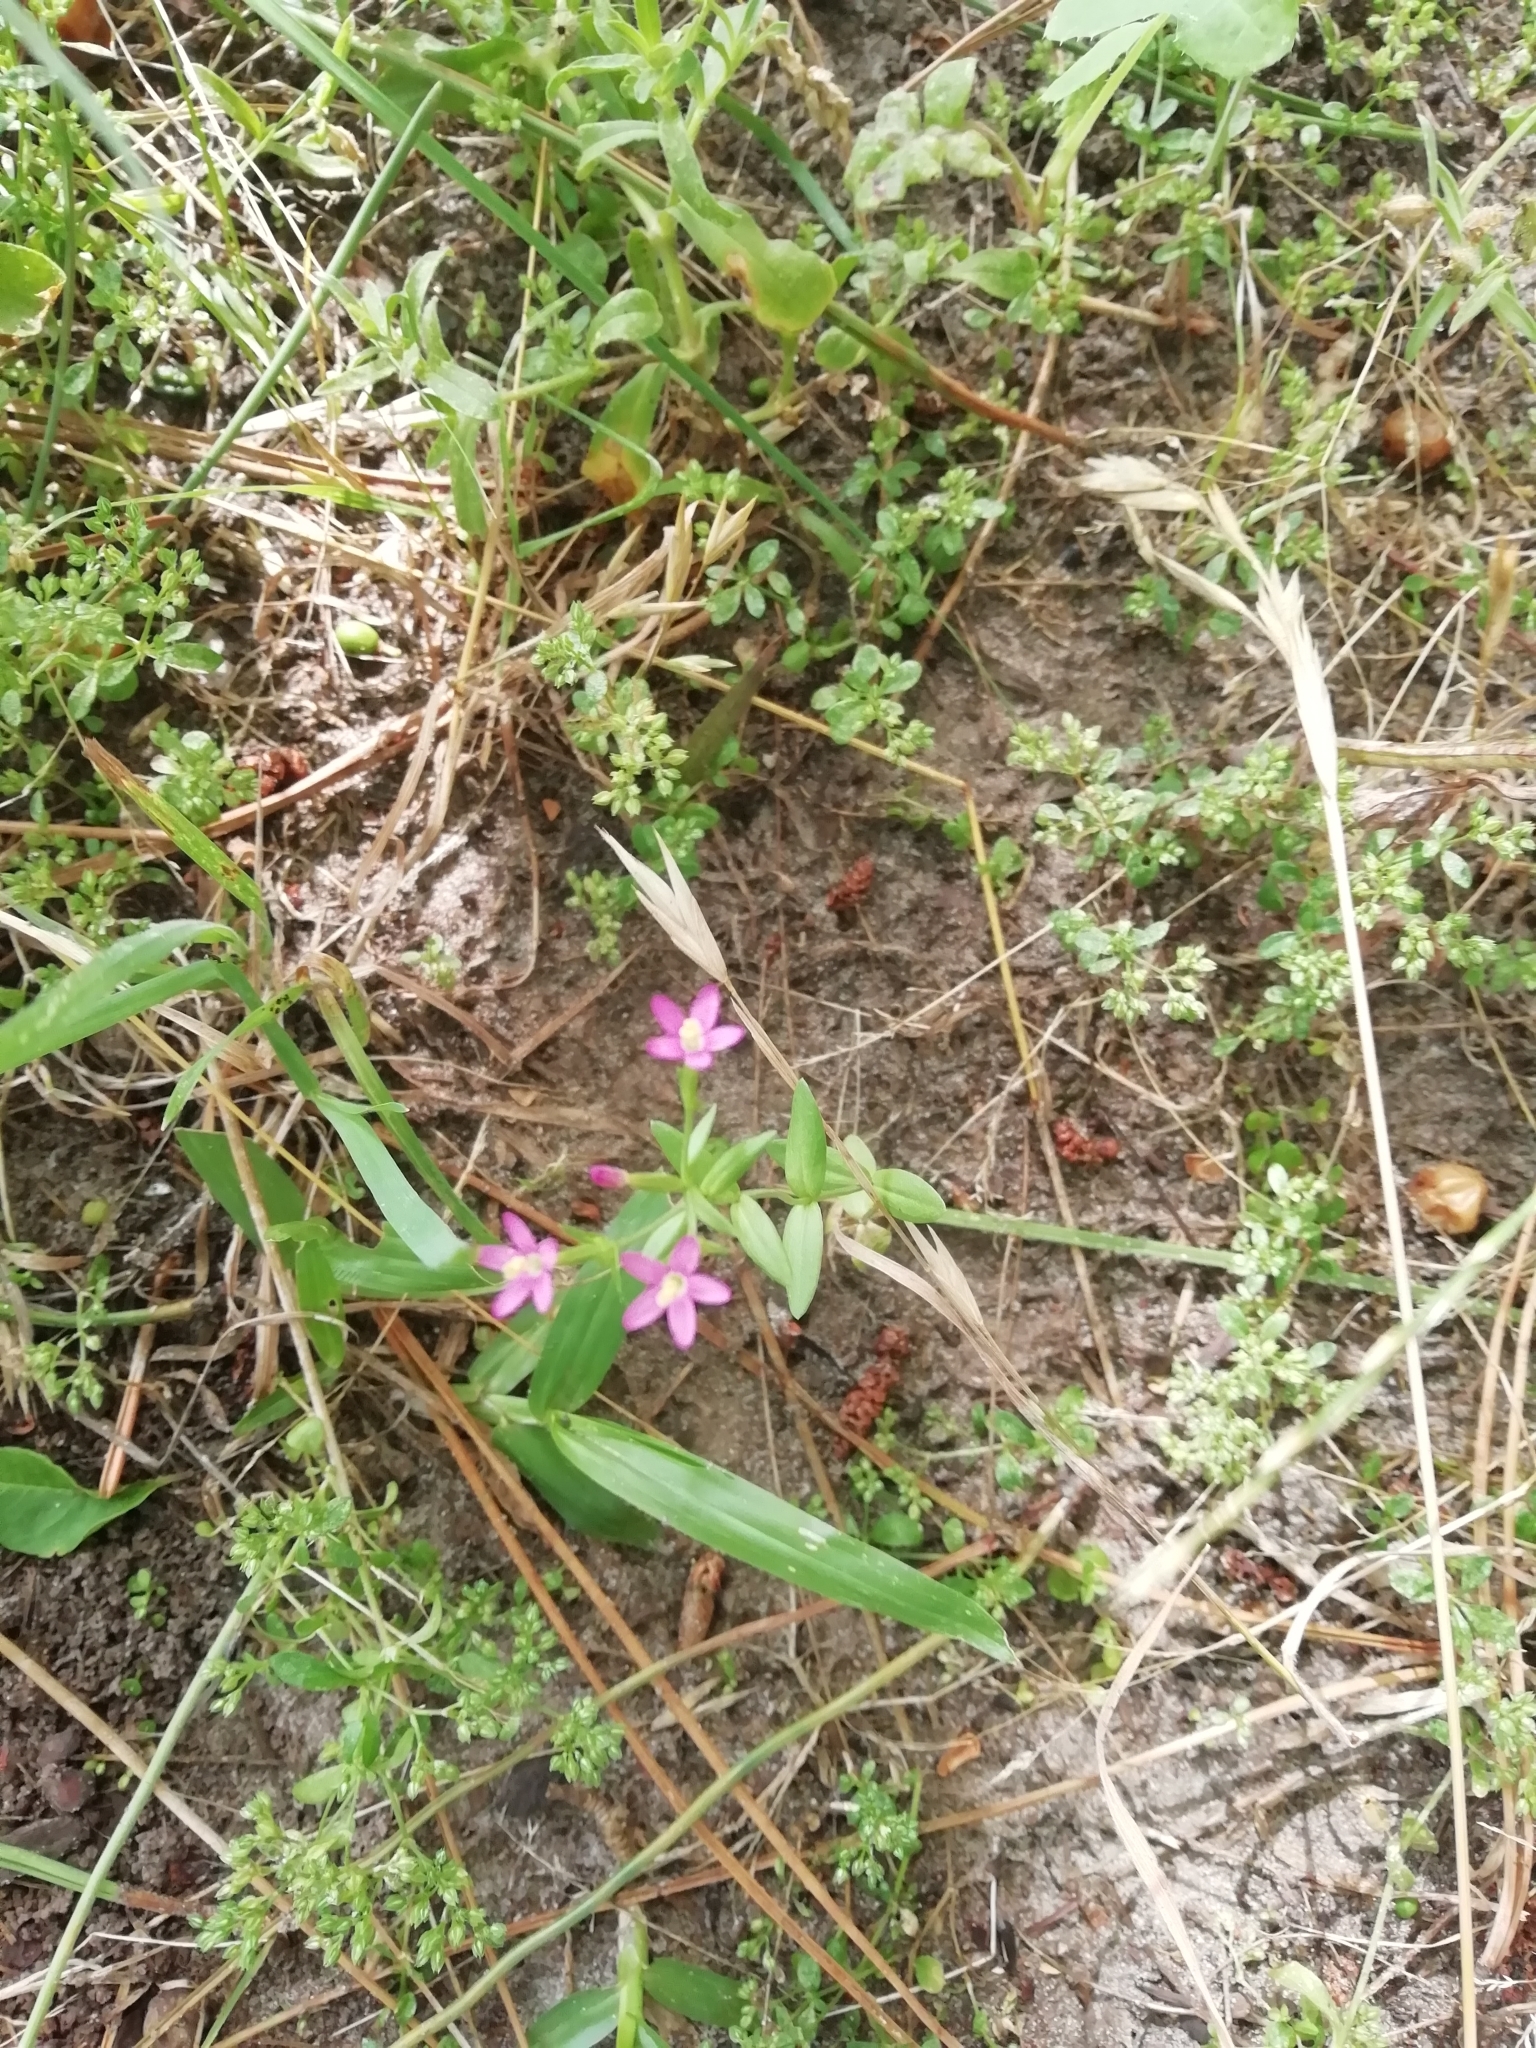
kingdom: Plantae
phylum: Tracheophyta
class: Magnoliopsida
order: Gentianales
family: Gentianaceae
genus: Centaurium
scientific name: Centaurium pulchellum
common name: Lesser centaury
